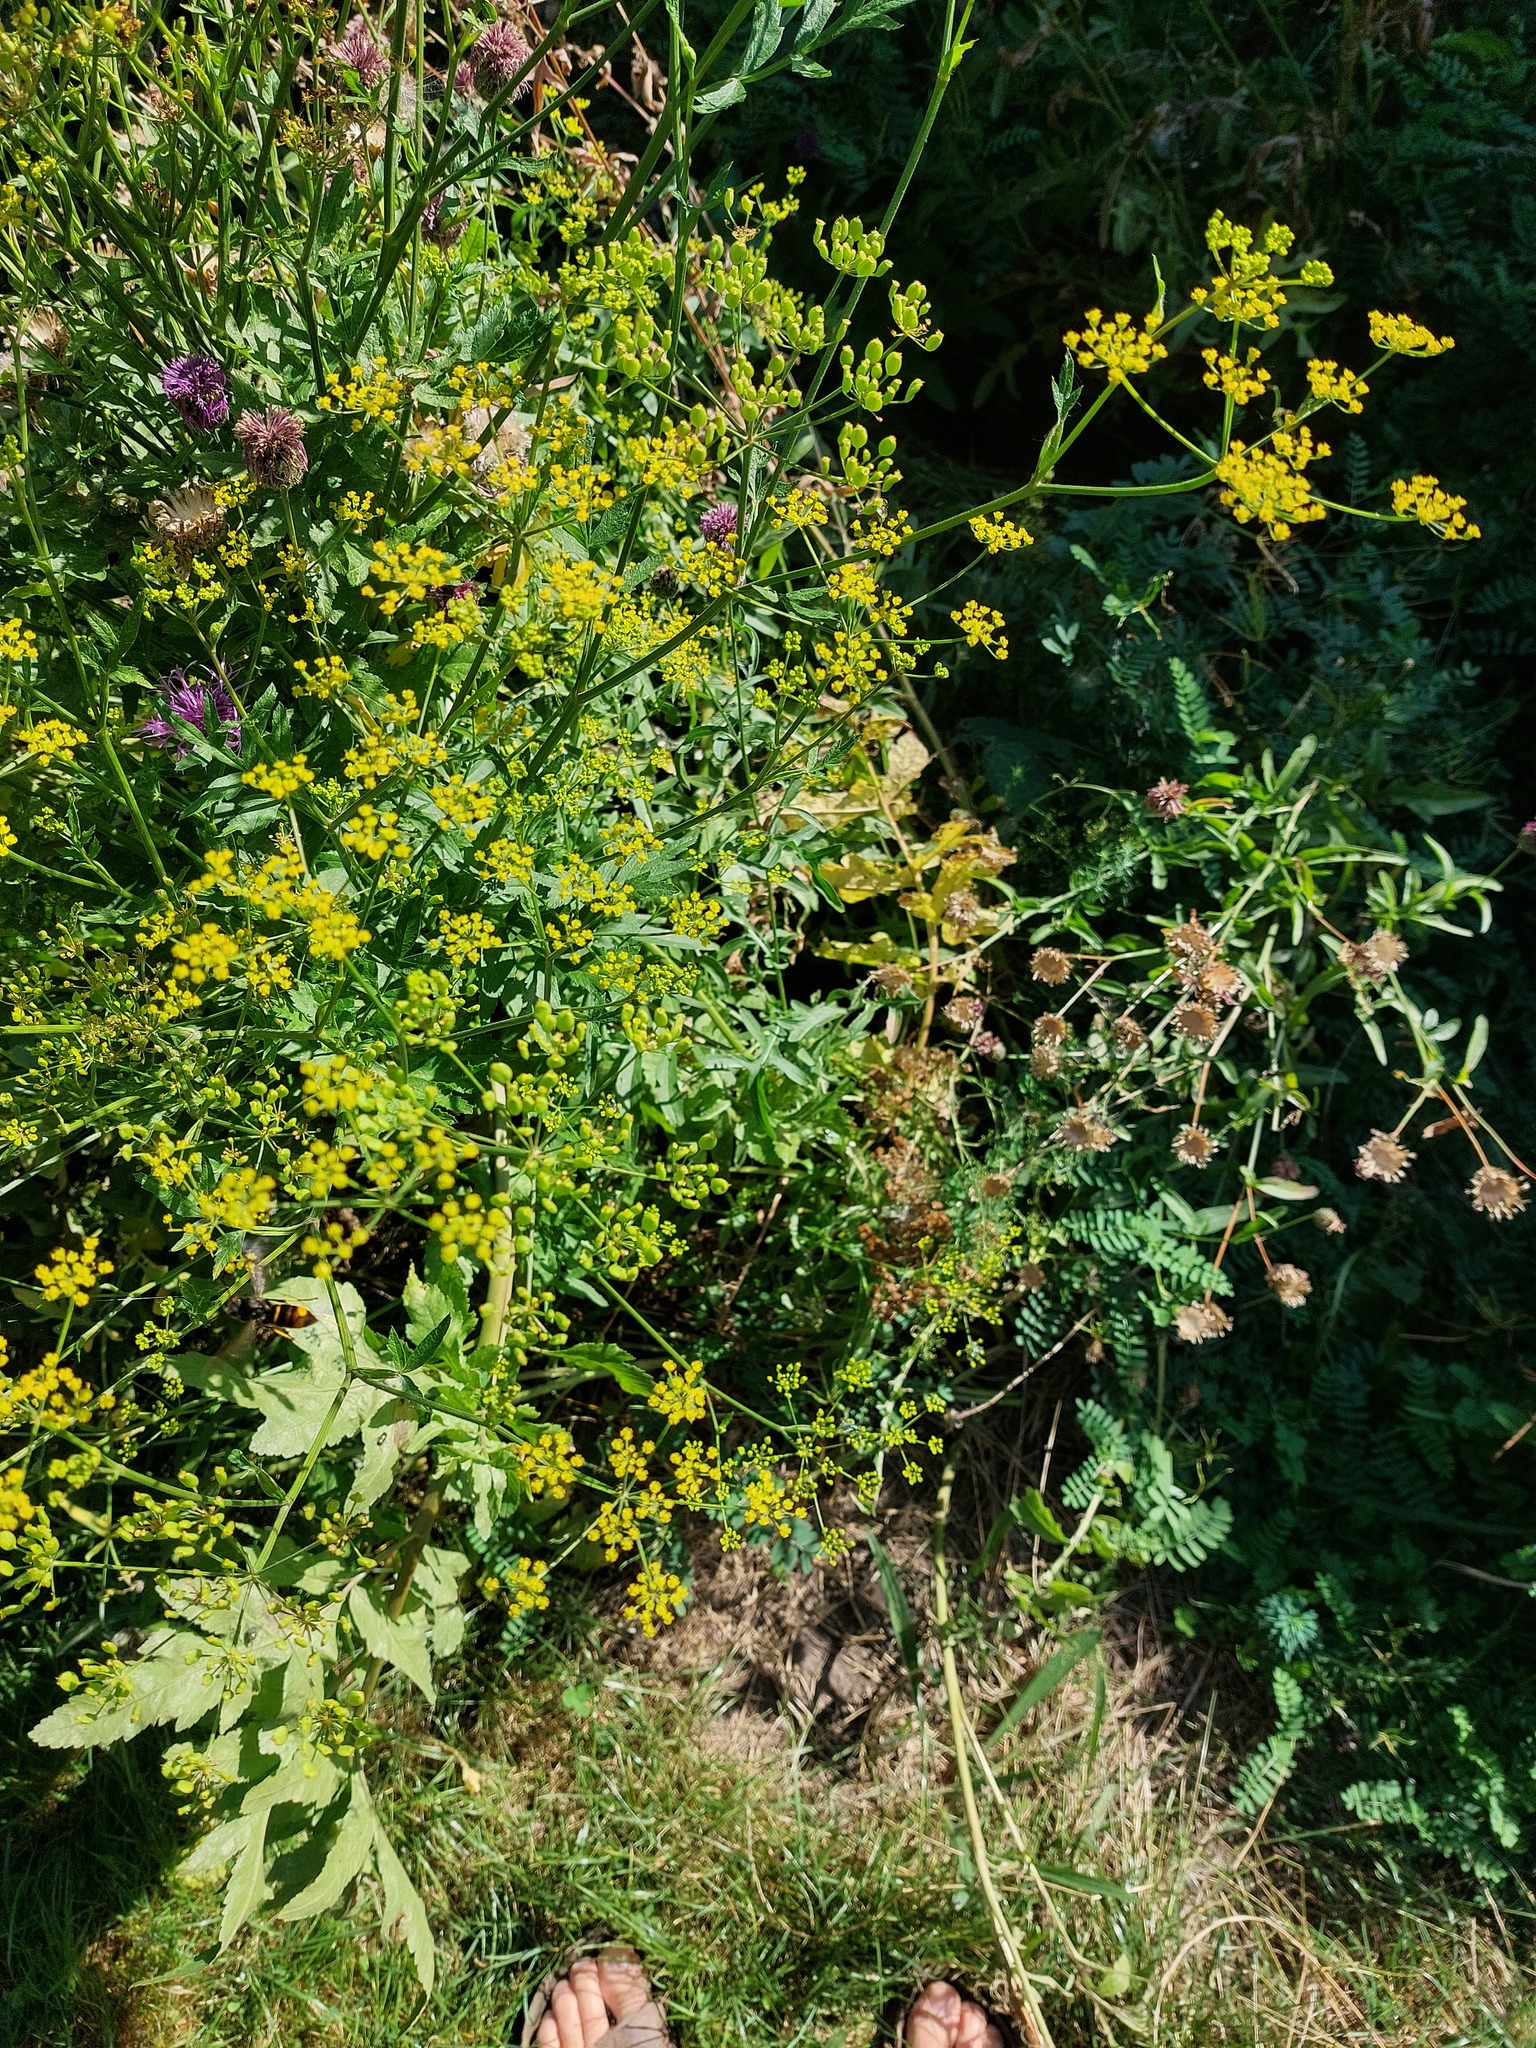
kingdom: Animalia
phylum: Arthropoda
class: Insecta
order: Hymenoptera
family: Vespidae
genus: Vespa
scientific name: Vespa velutina
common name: Asian hornet
